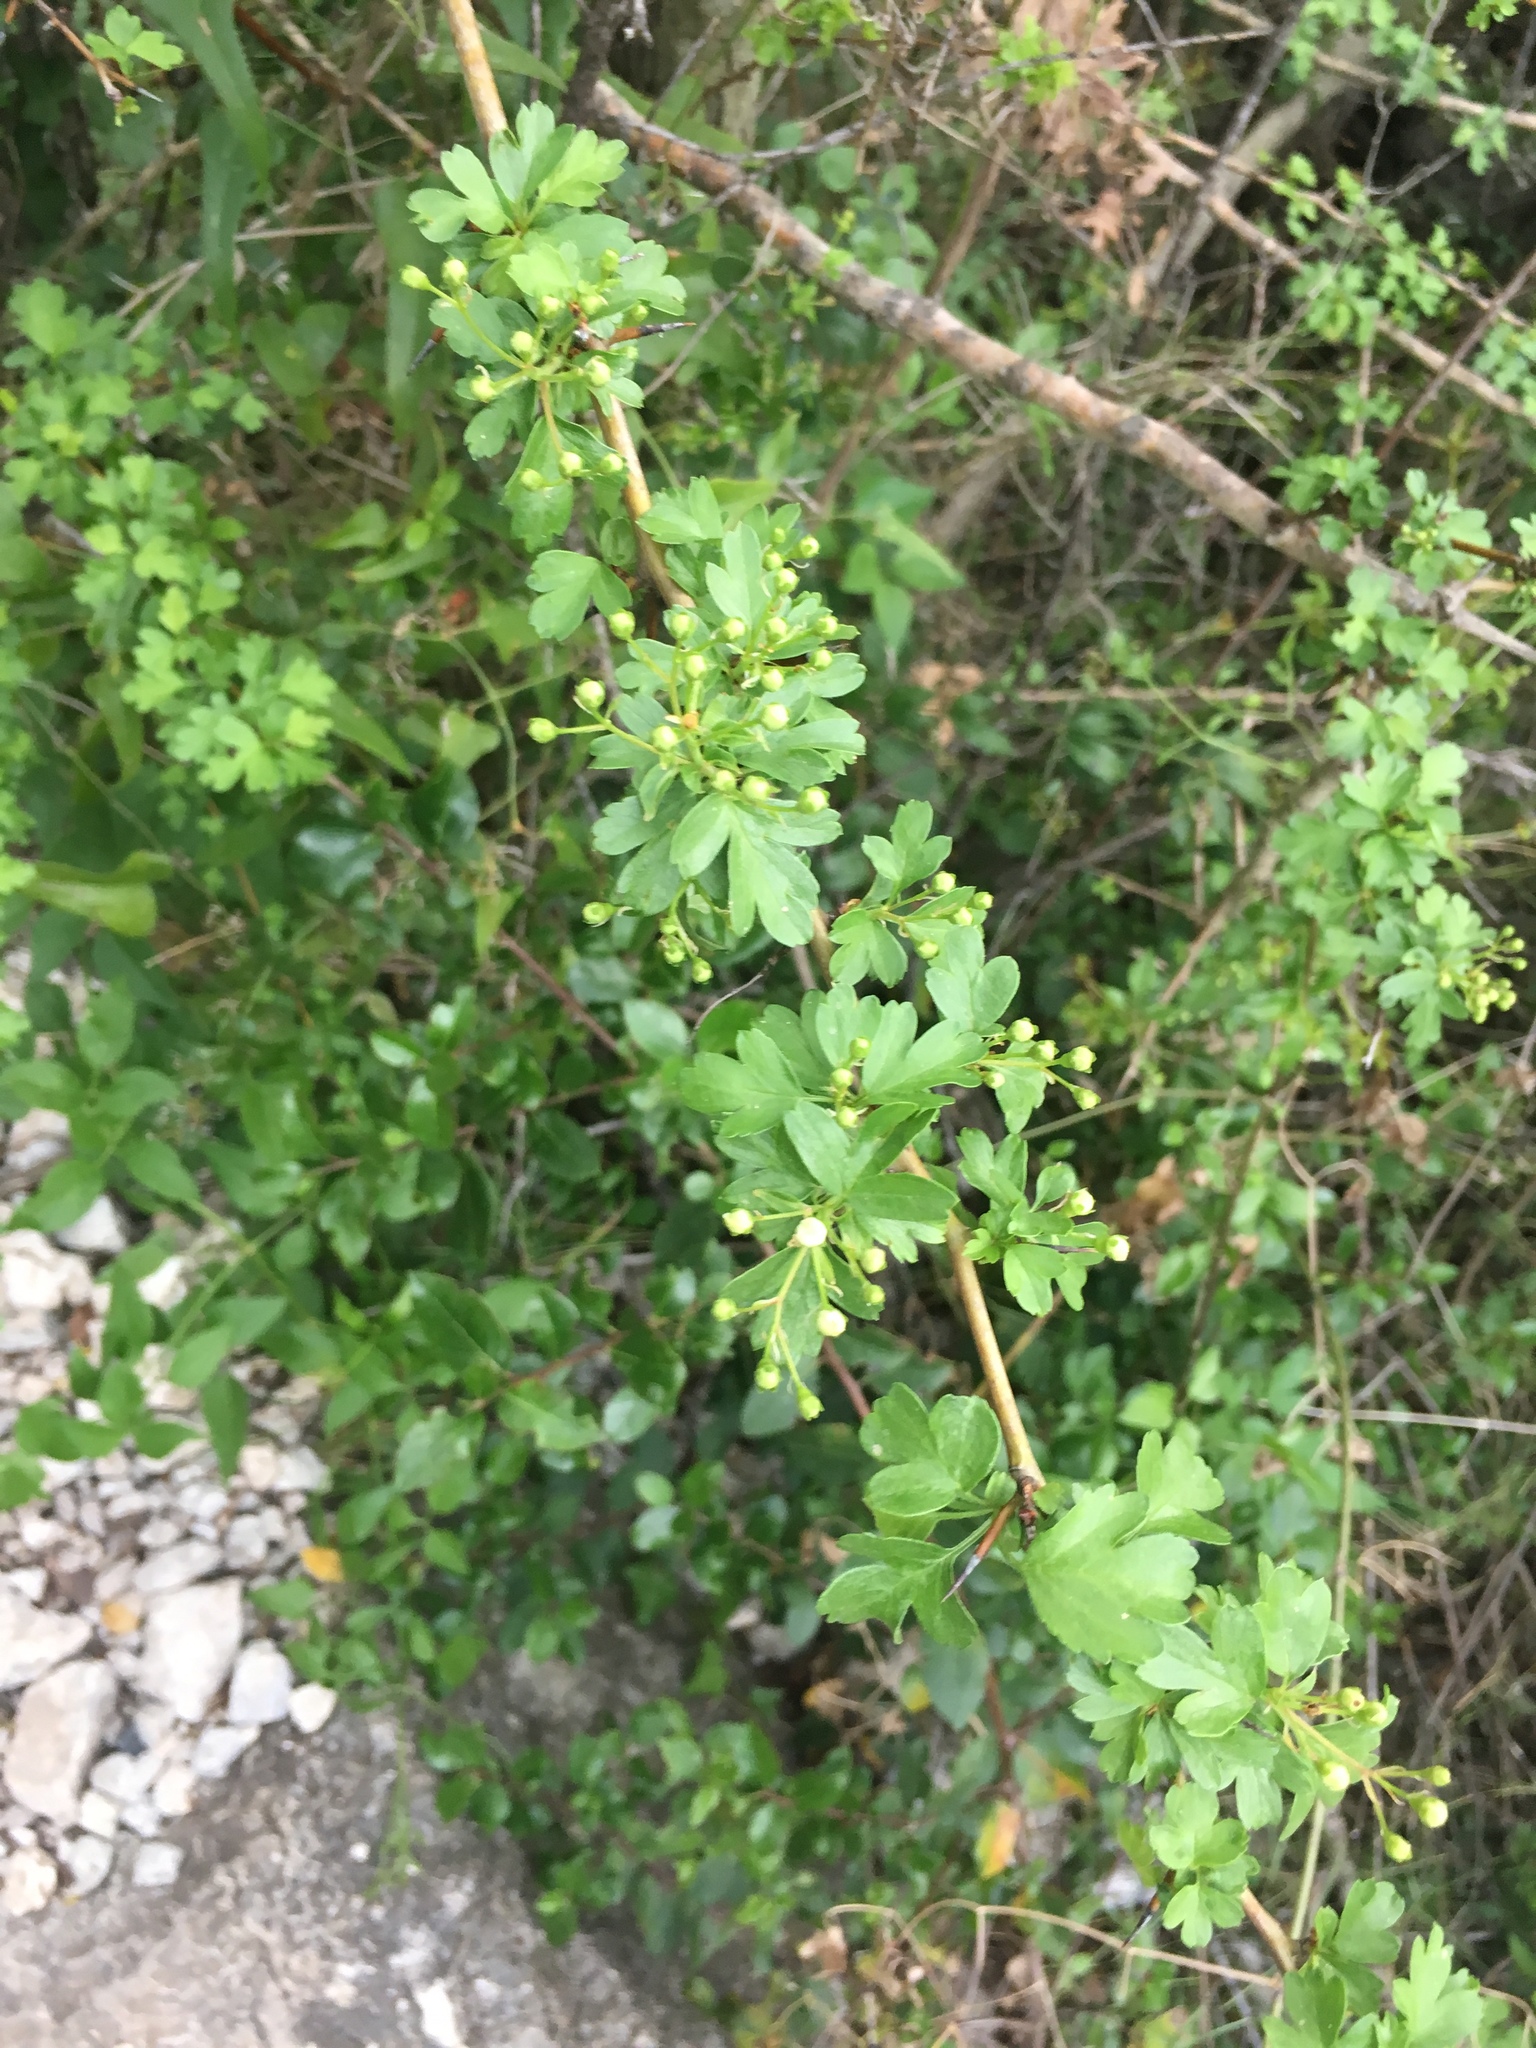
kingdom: Plantae
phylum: Tracheophyta
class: Magnoliopsida
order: Rosales
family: Rosaceae
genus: Crataegus
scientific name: Crataegus monogyna
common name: Hawthorn
